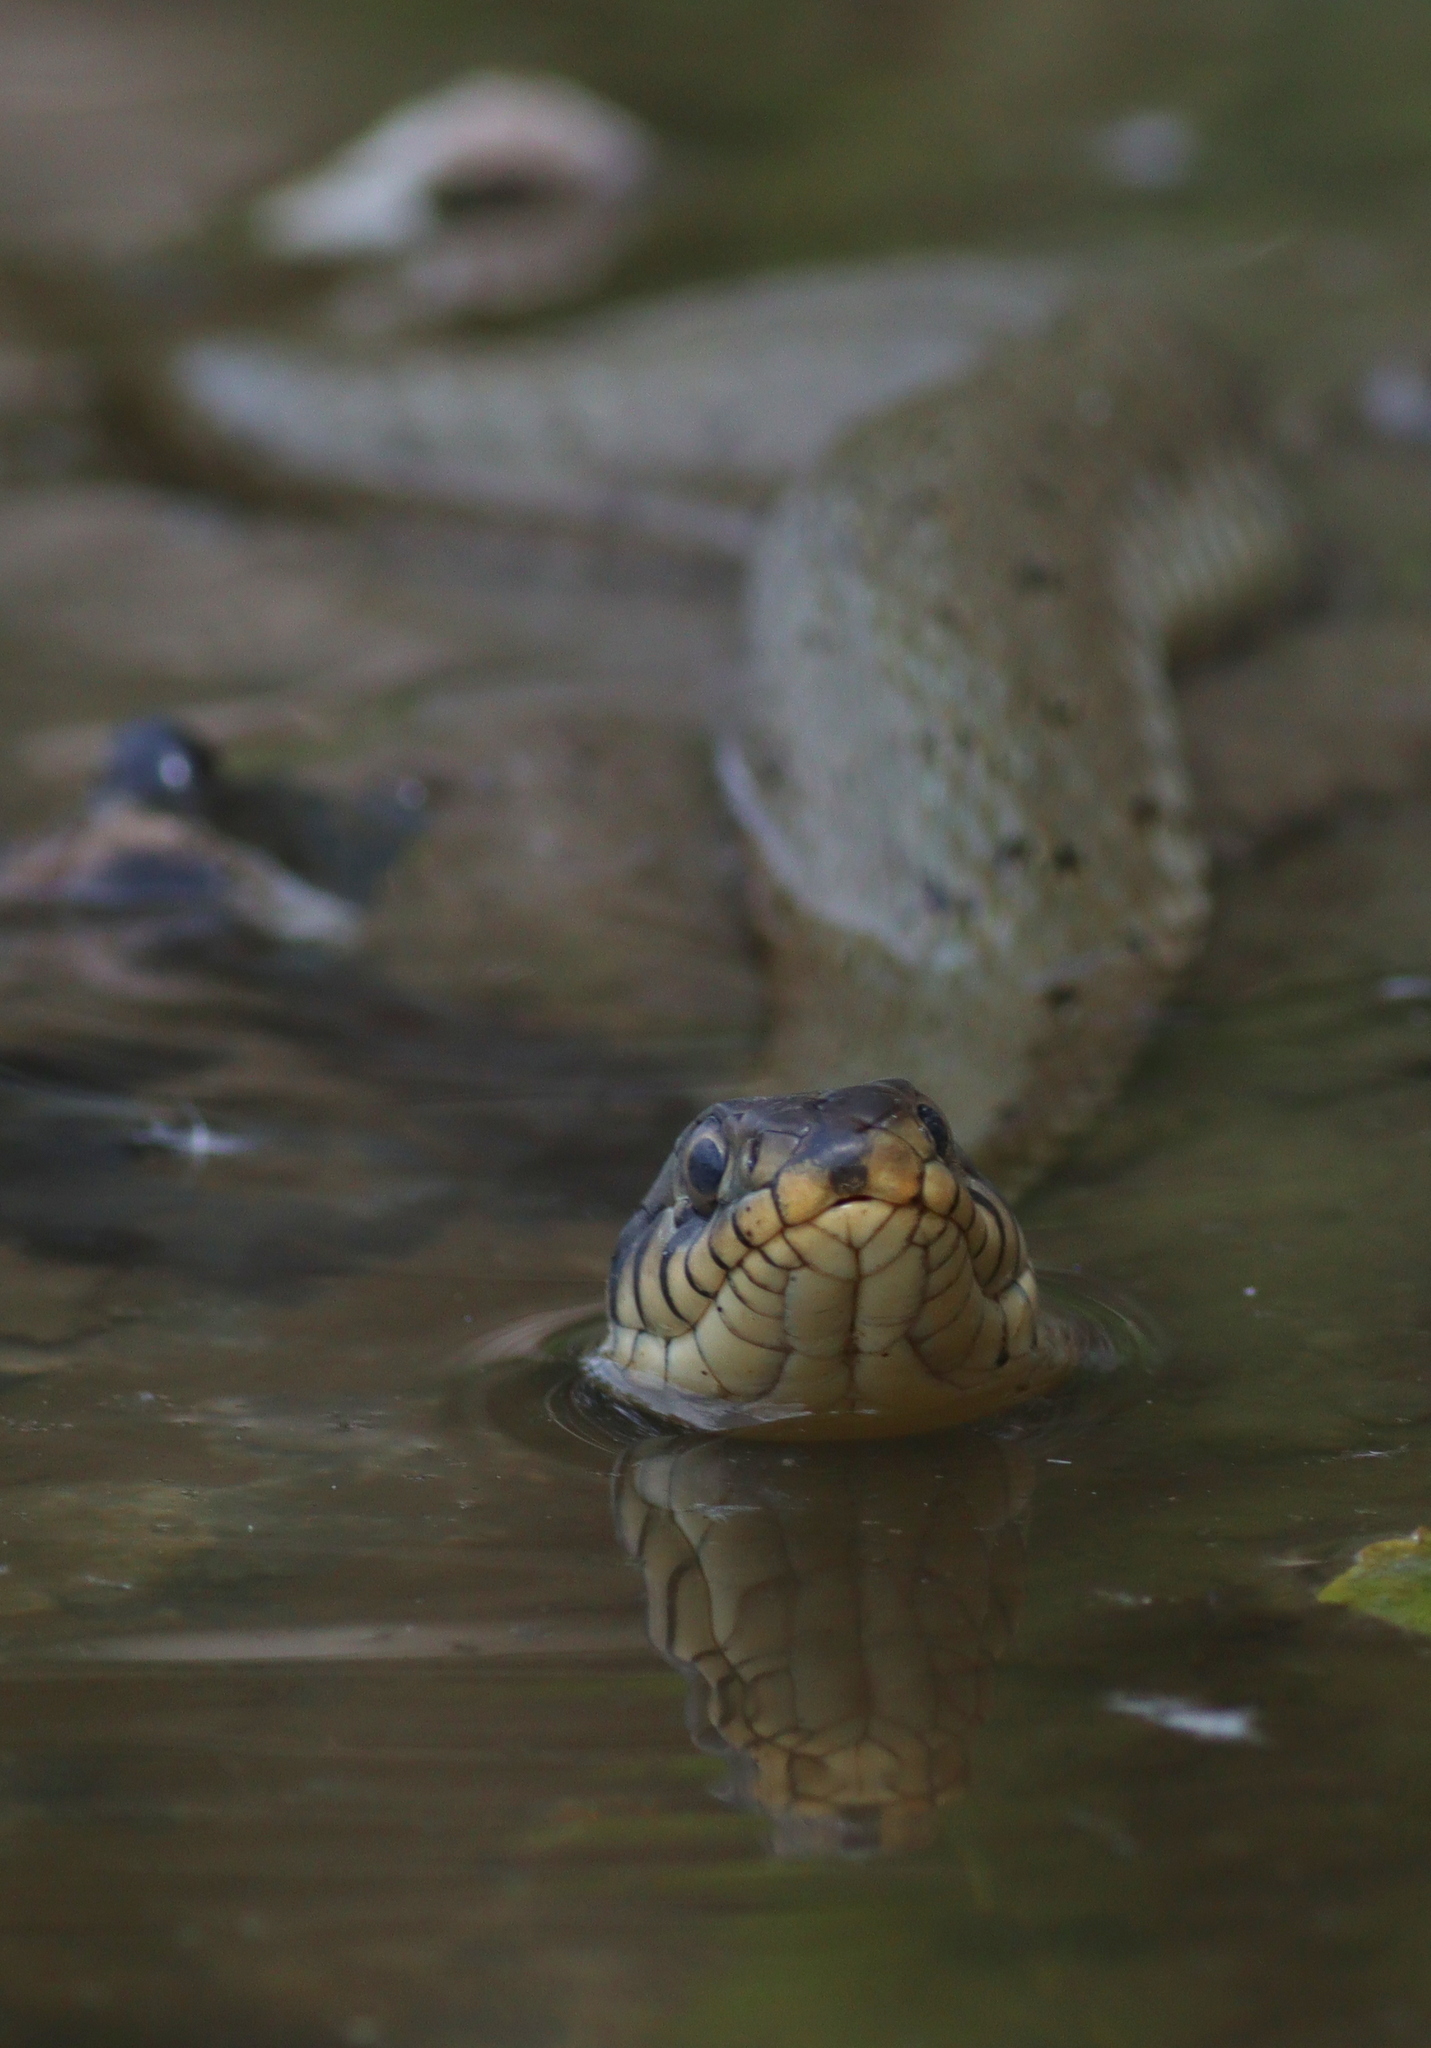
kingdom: Animalia
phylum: Chordata
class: Squamata
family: Colubridae
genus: Natrix
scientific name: Natrix natrix
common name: Grass snake
